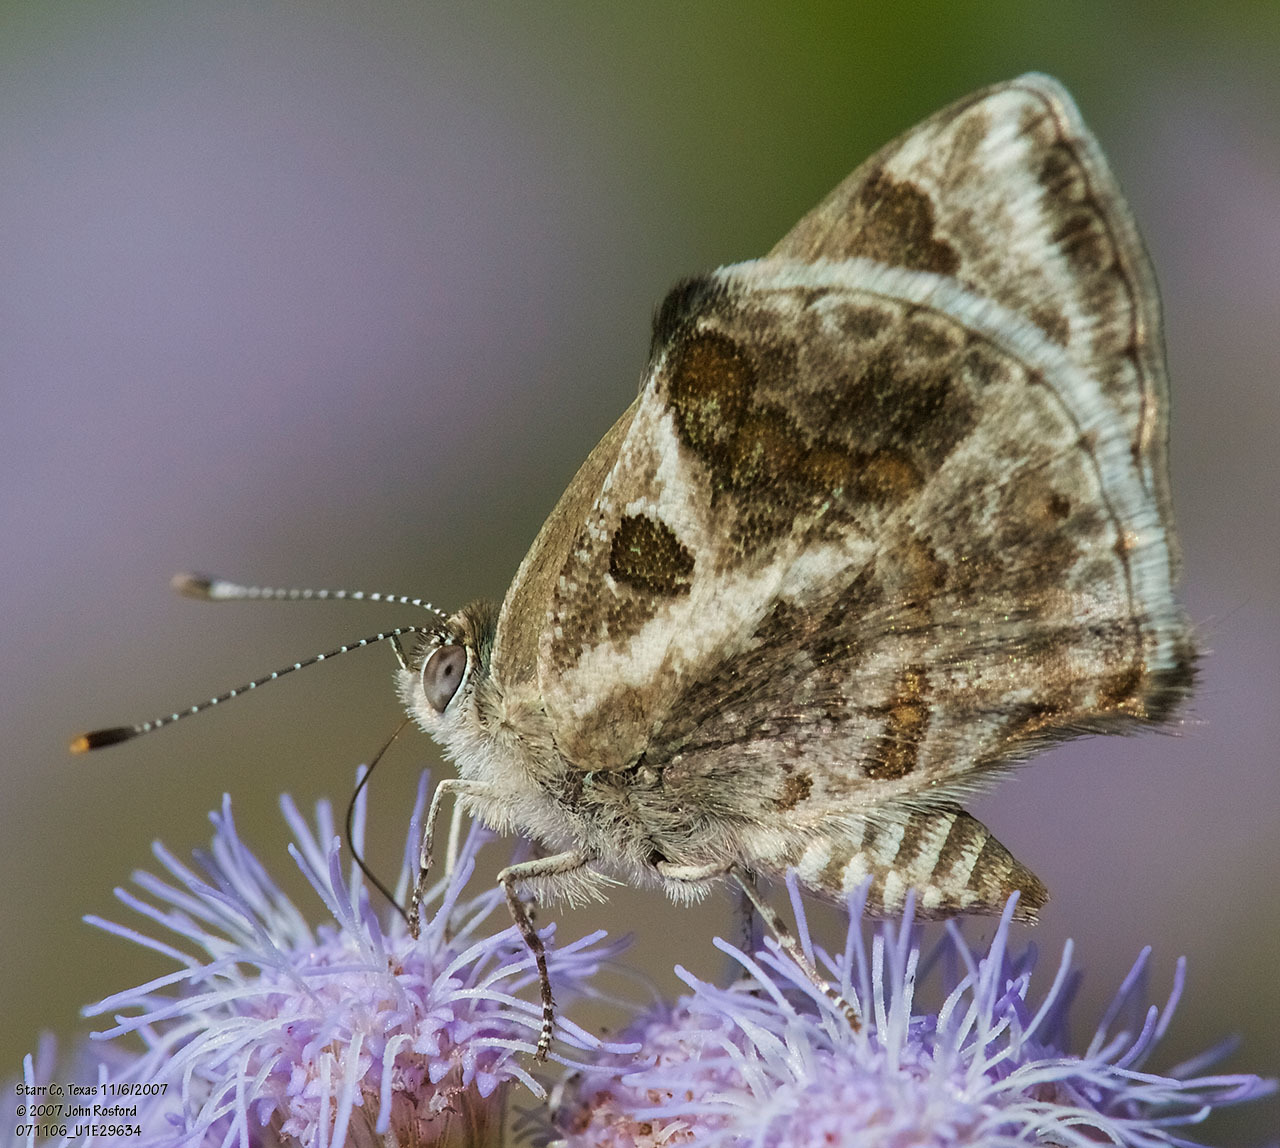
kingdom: Animalia
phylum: Arthropoda
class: Insecta
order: Lepidoptera
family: Lycaenidae
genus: Strymon
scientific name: Strymon bazochii
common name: Lantana scrub-hairstreak
